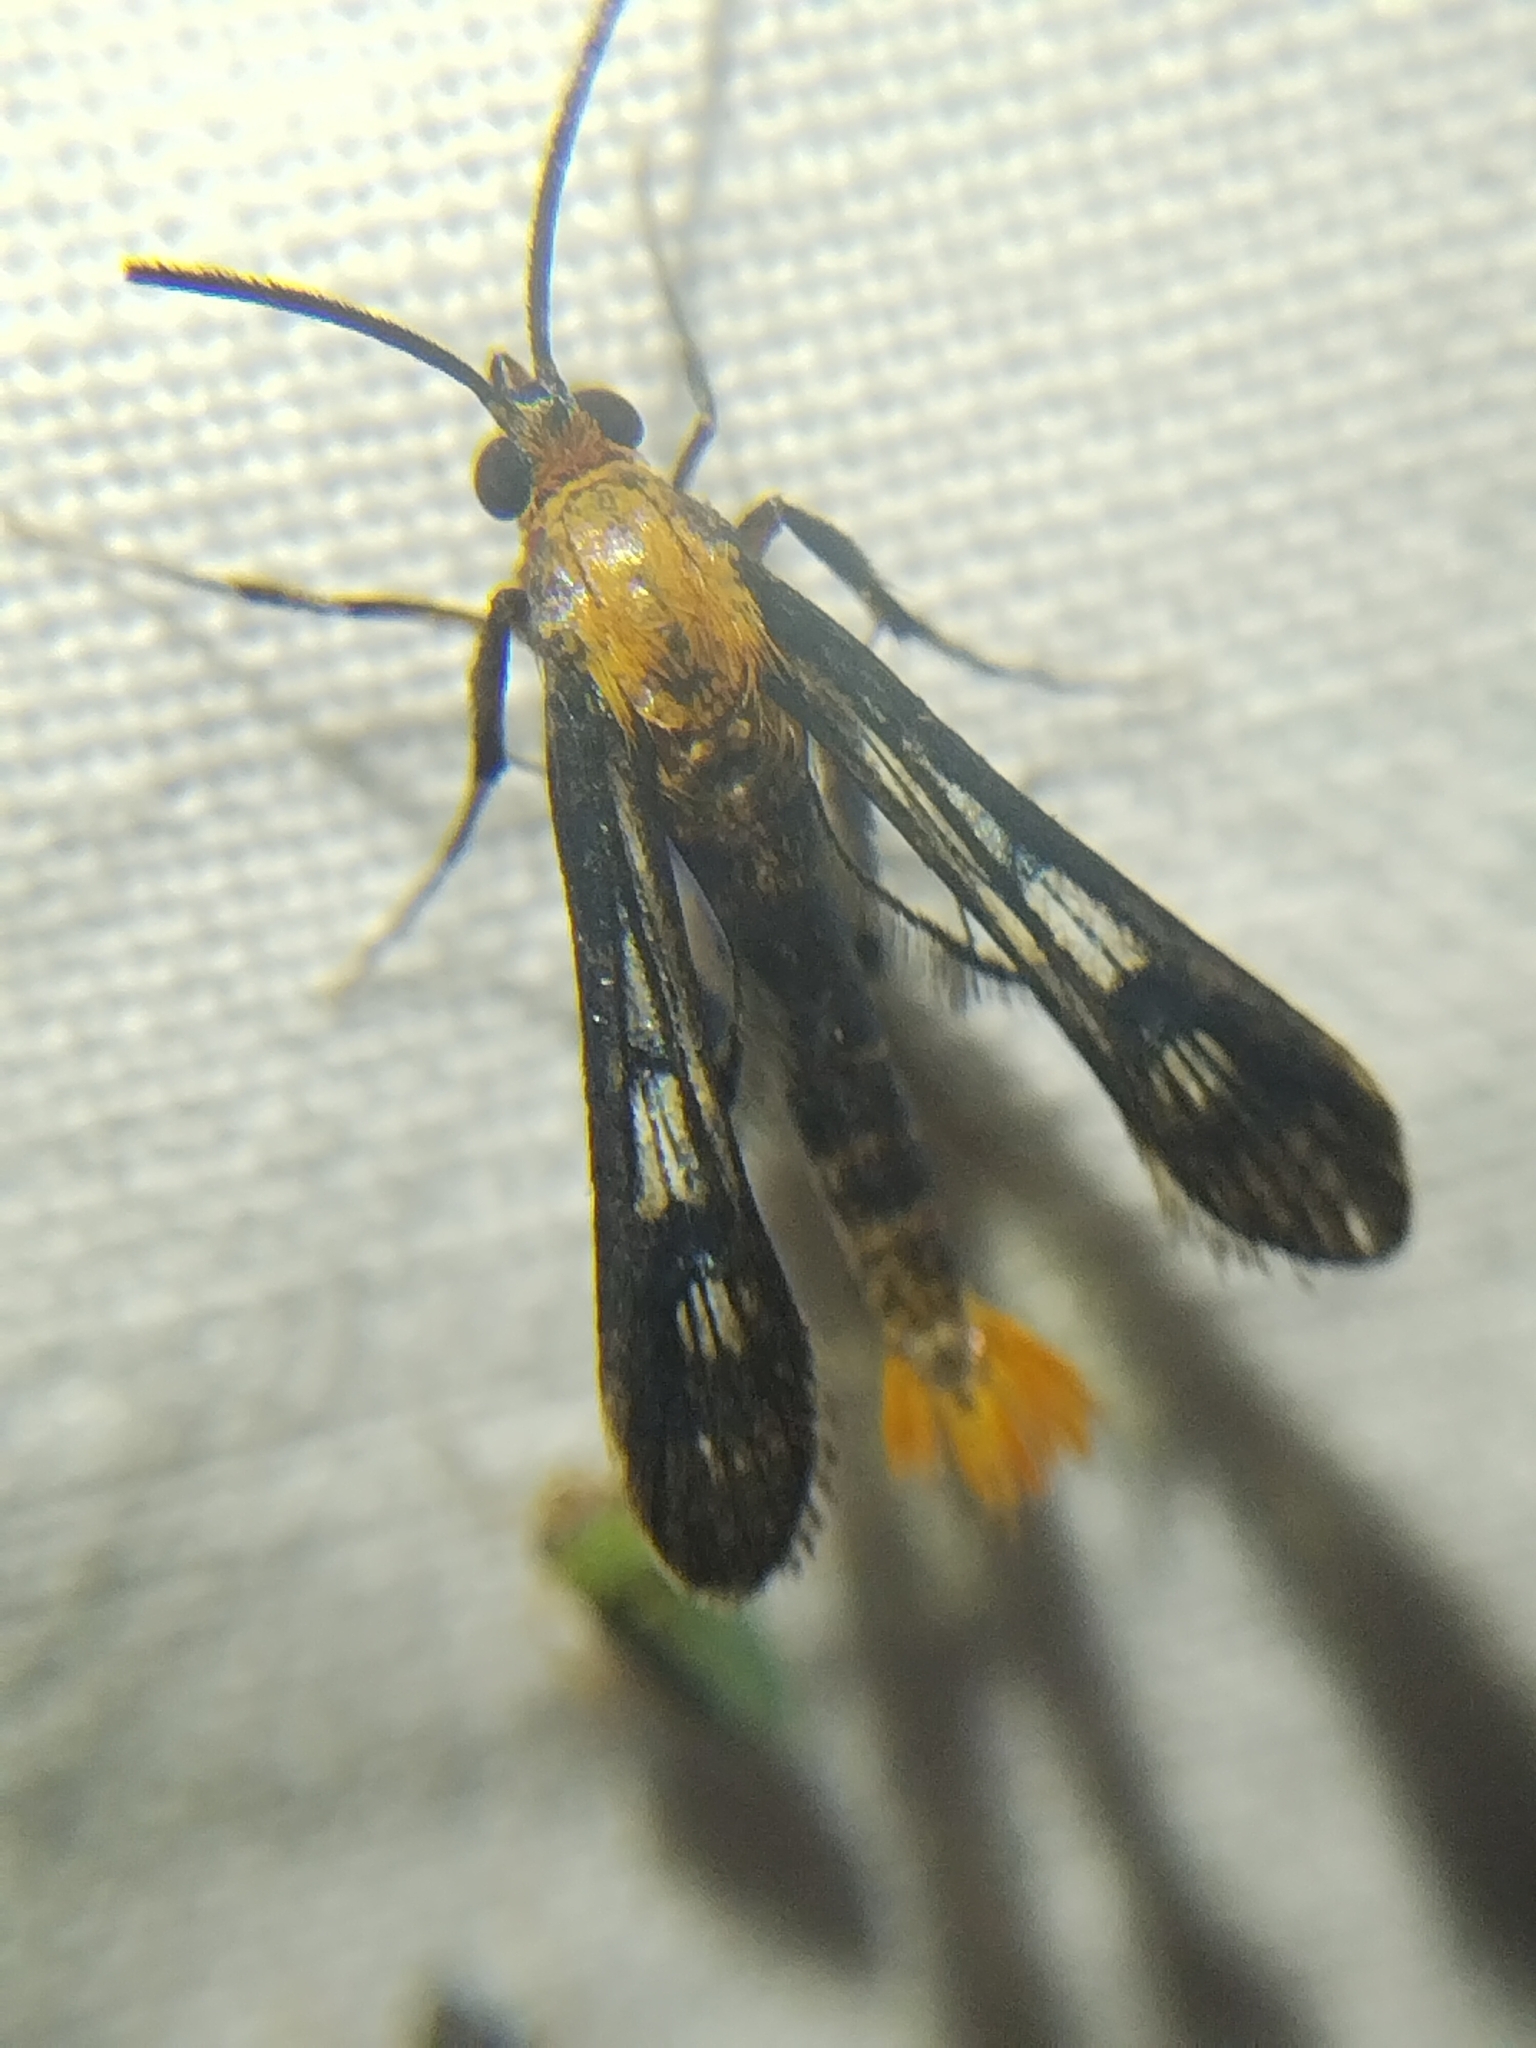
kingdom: Animalia
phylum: Arthropoda
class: Insecta
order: Lepidoptera
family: Sesiidae
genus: Synanthedon
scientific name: Synanthedon acerni
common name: Maple callus borer moth
